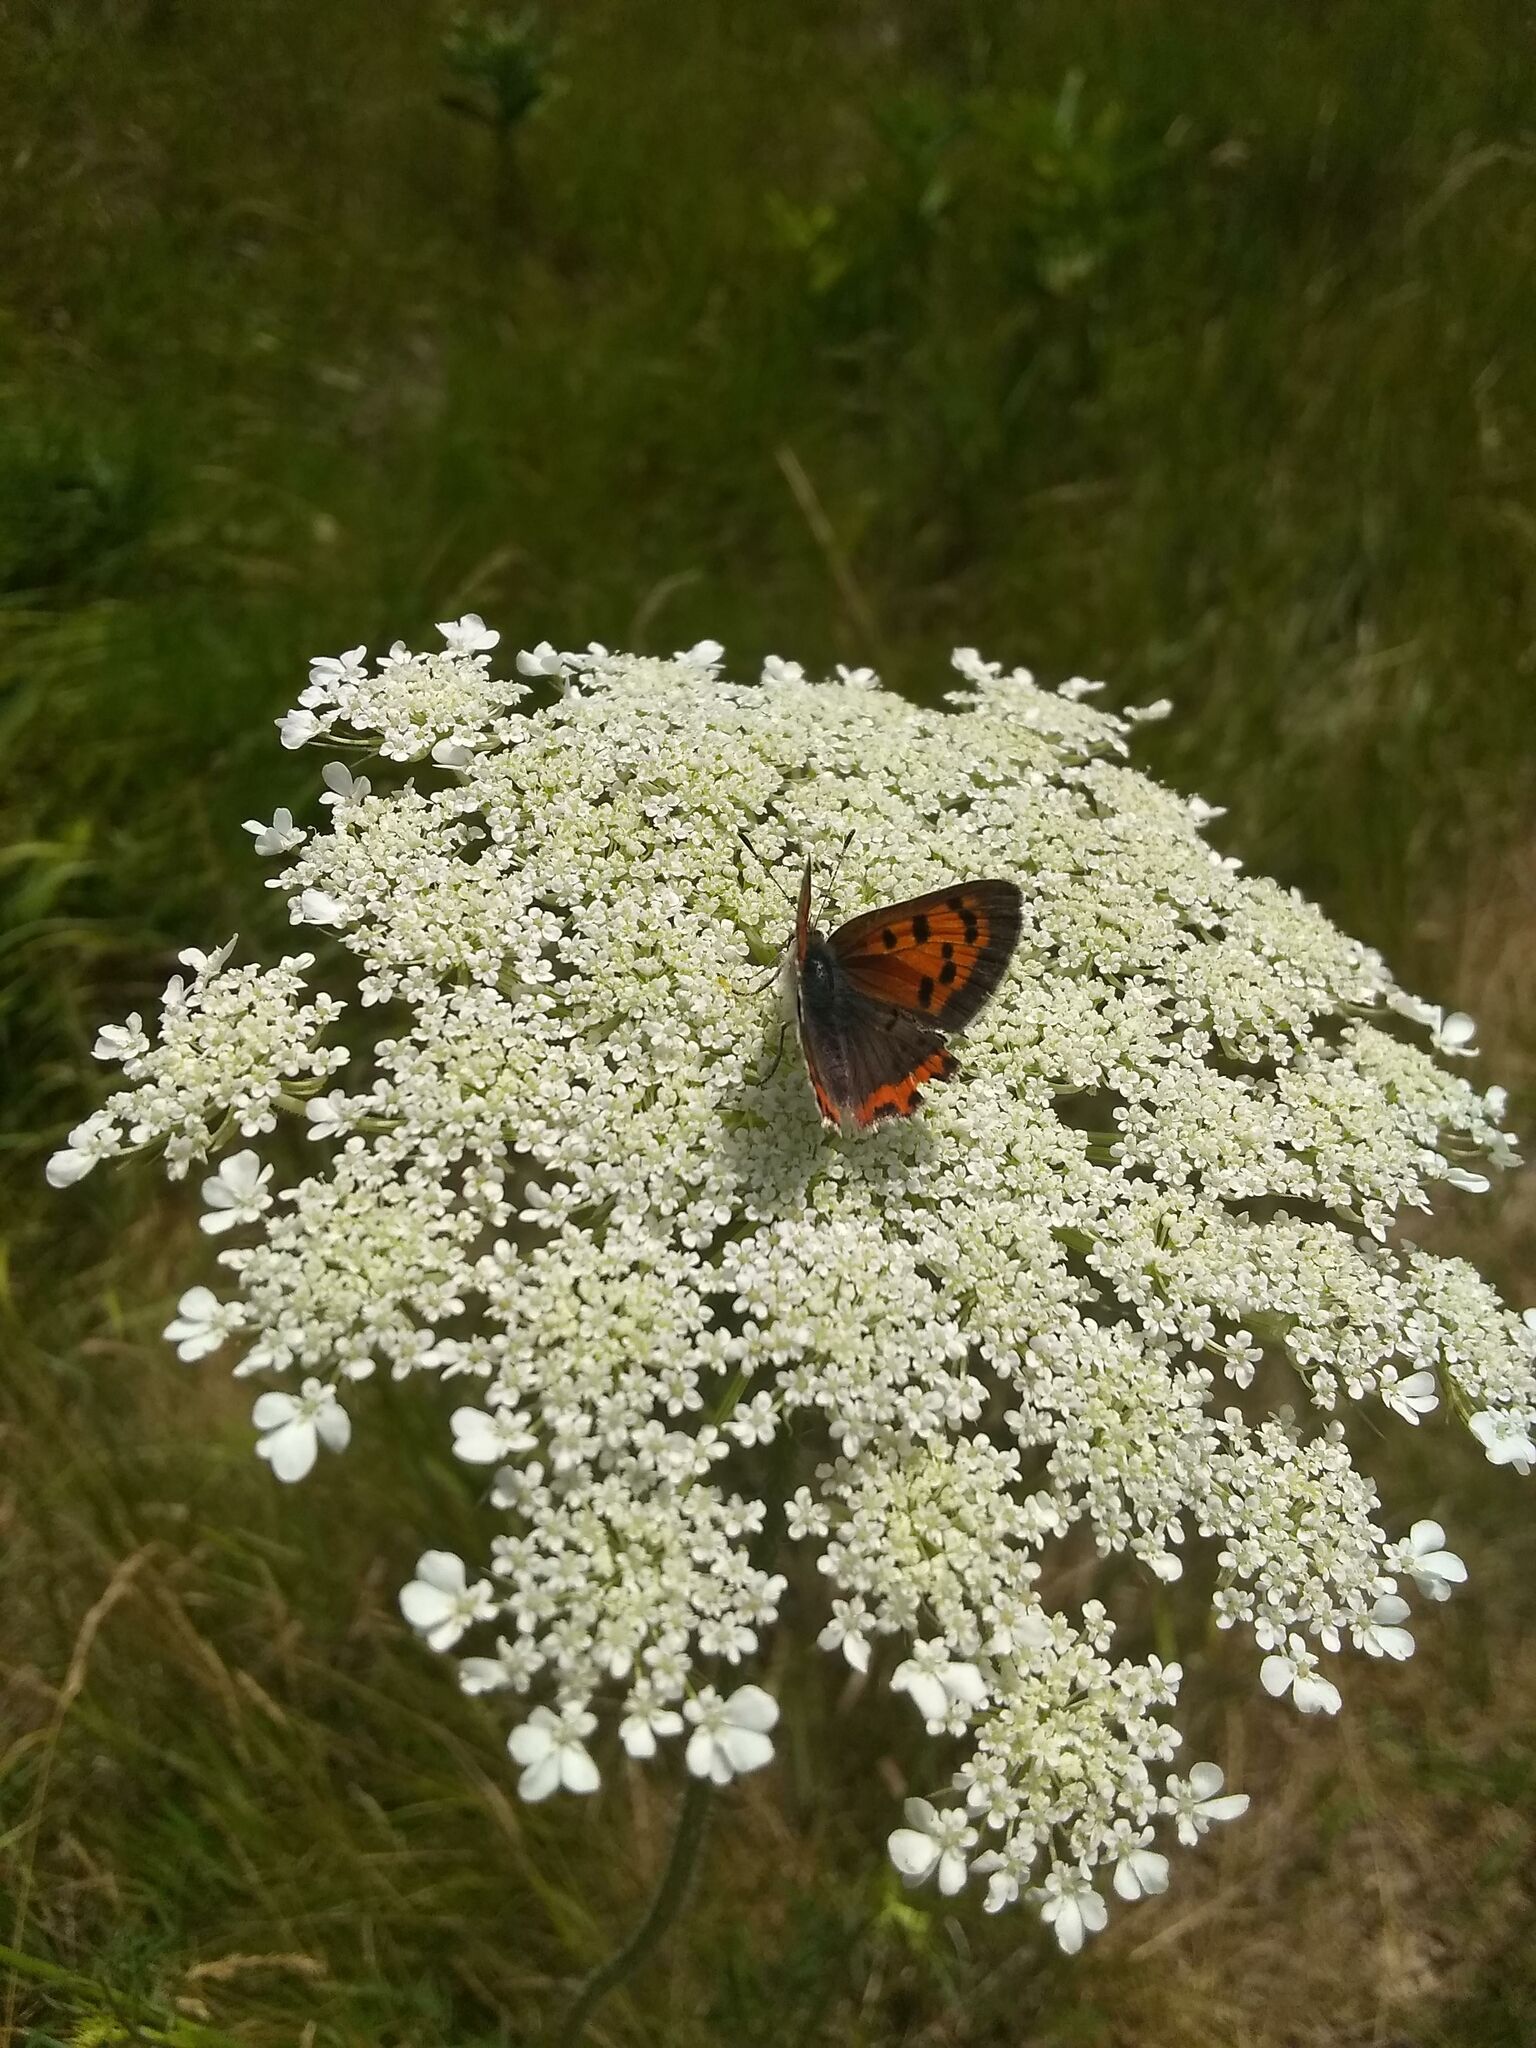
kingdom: Animalia
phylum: Arthropoda
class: Insecta
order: Lepidoptera
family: Lycaenidae
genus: Lycaena
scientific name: Lycaena hypophlaeas
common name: American copper
